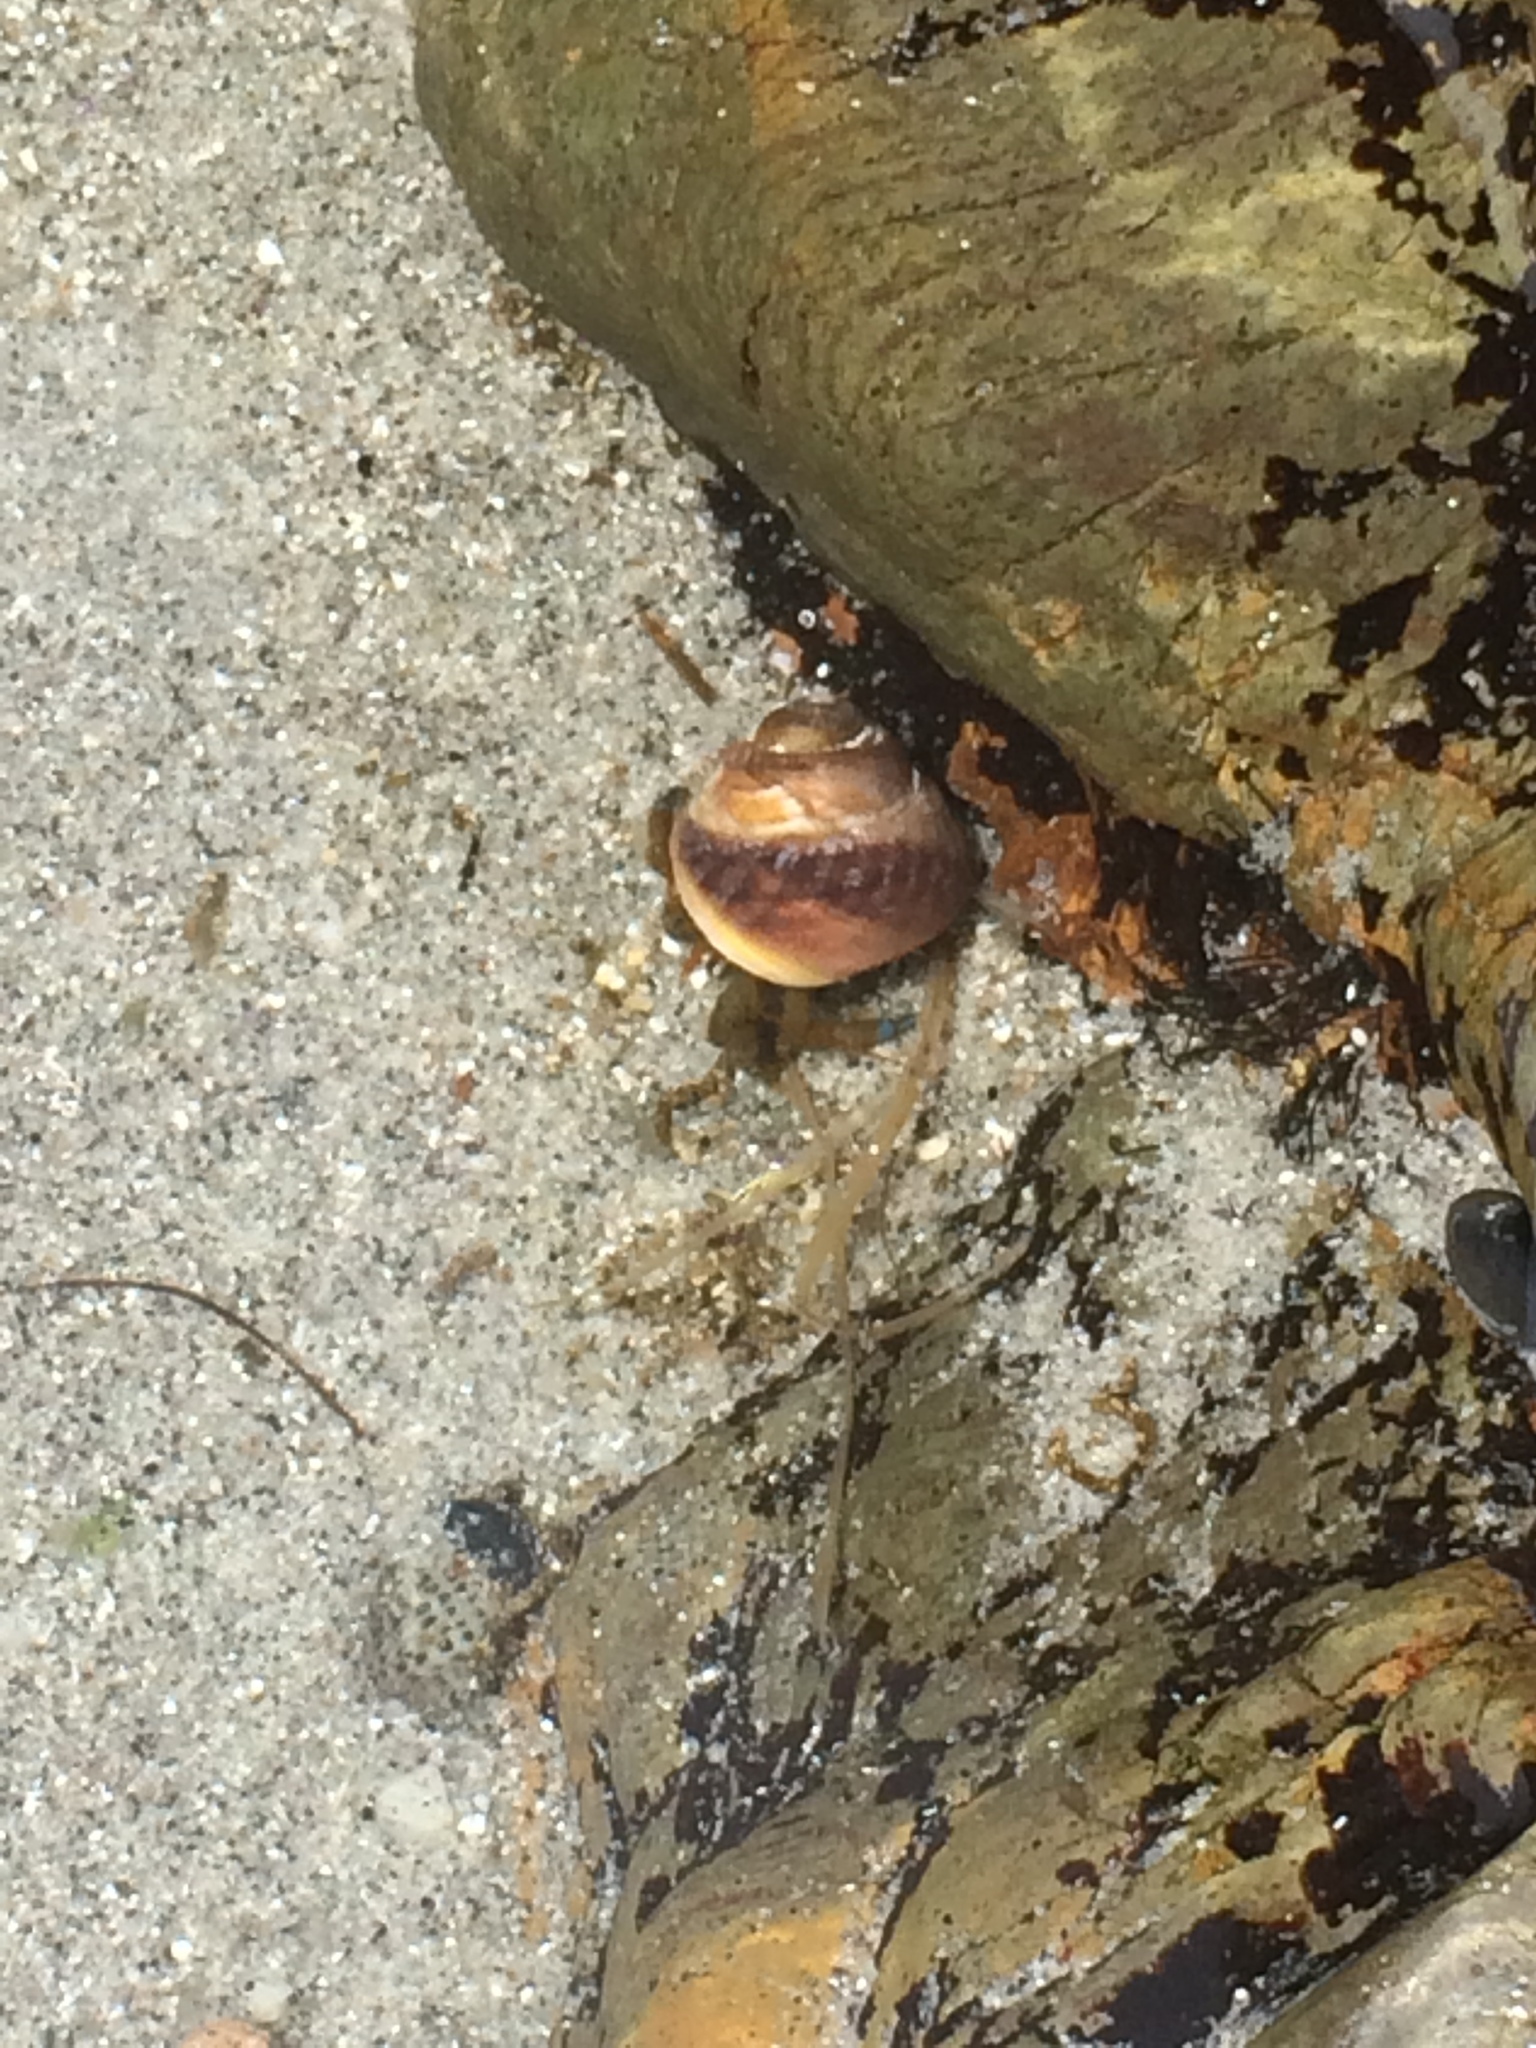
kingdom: Animalia
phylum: Arthropoda
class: Malacostraca
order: Decapoda
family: Paguridae
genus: Pagurus
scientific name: Pagurus samuelis
